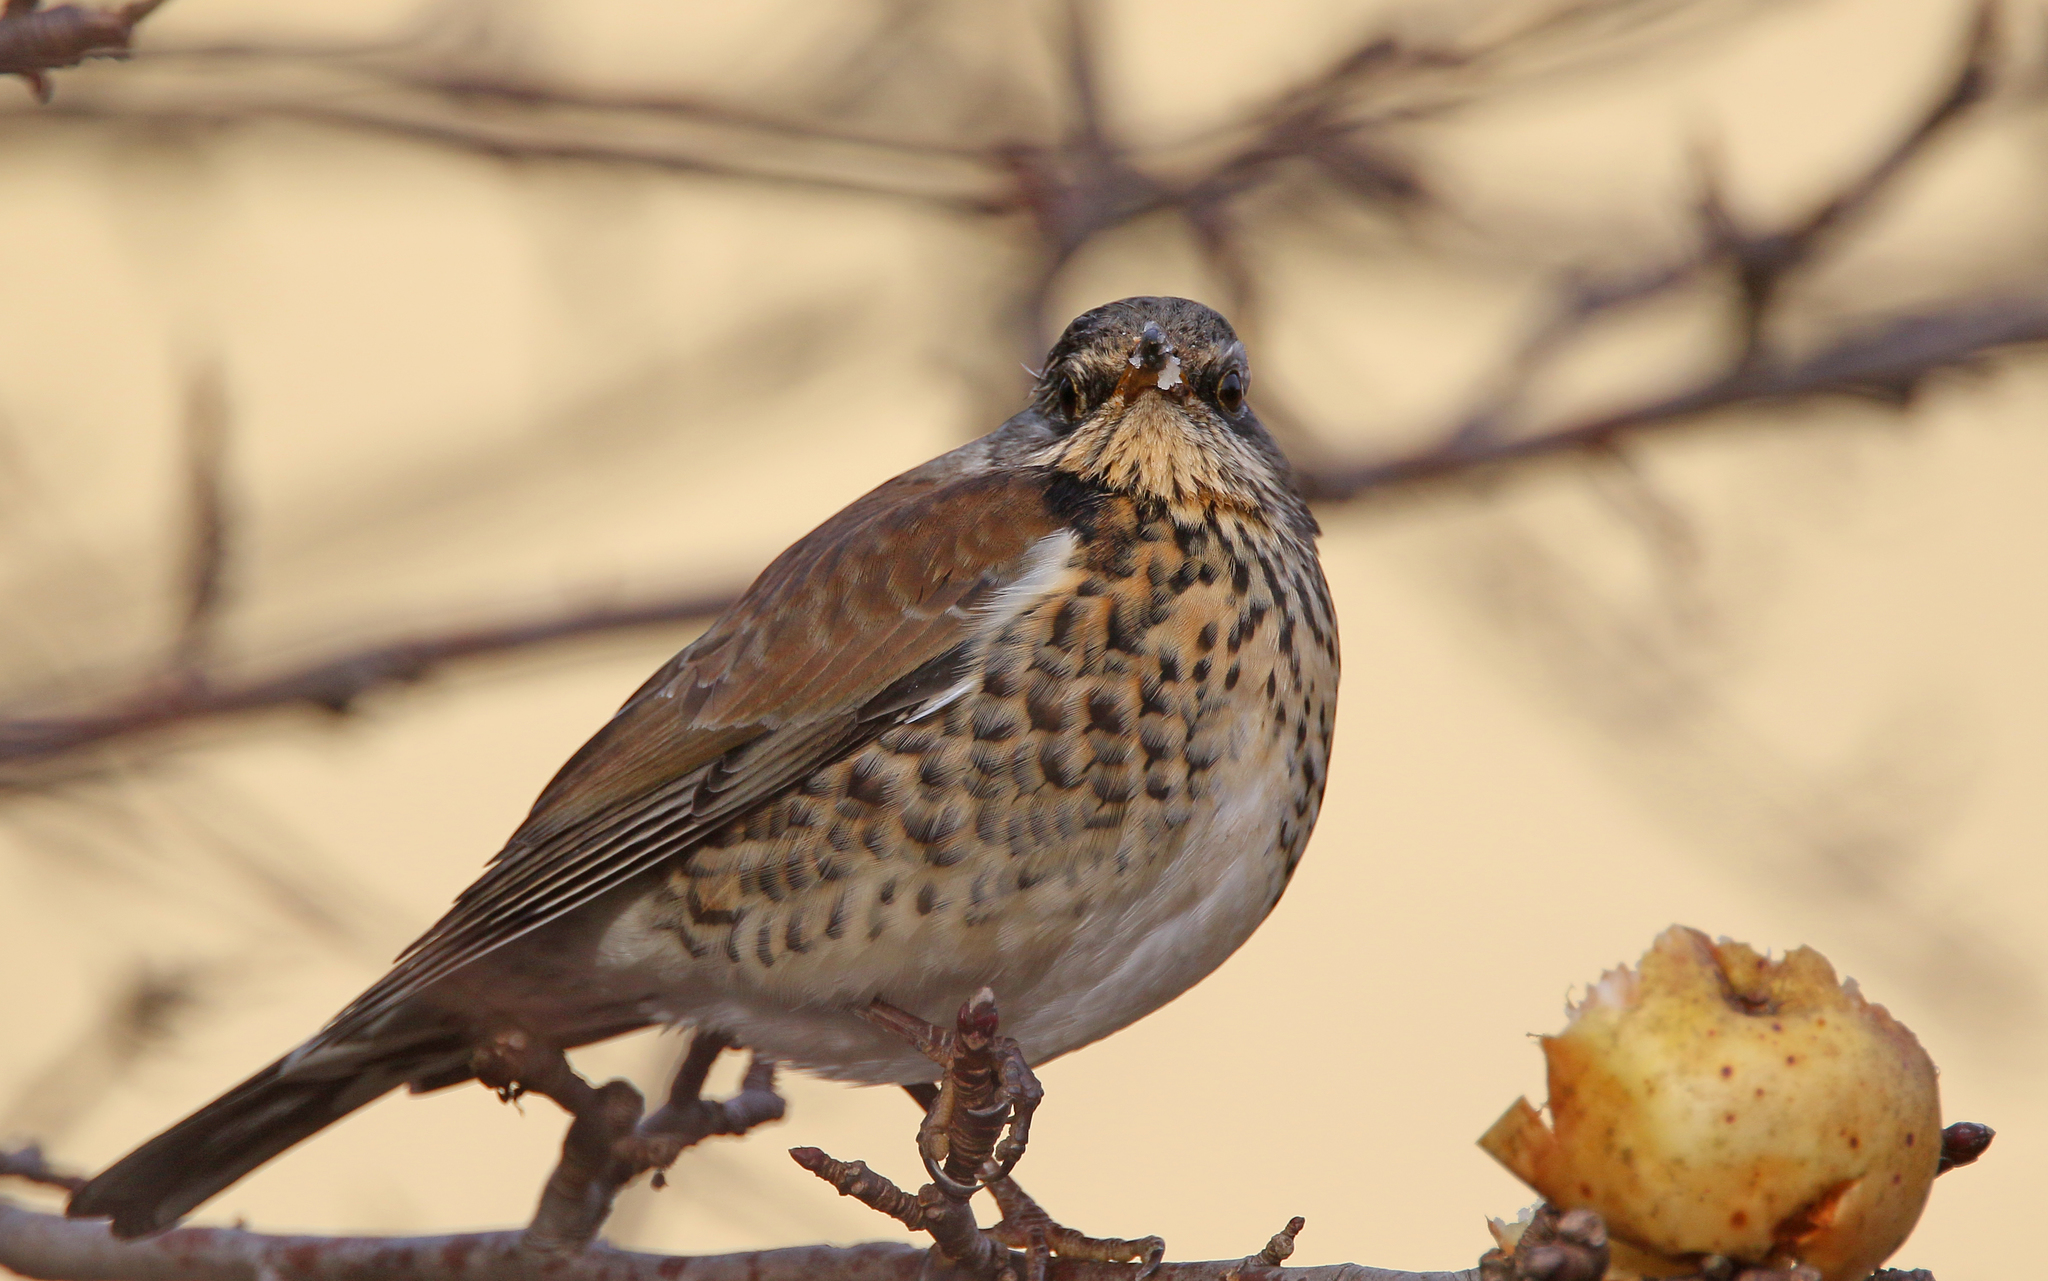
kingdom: Animalia
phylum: Chordata
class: Aves
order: Passeriformes
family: Turdidae
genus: Turdus
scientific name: Turdus pilaris
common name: Fieldfare
